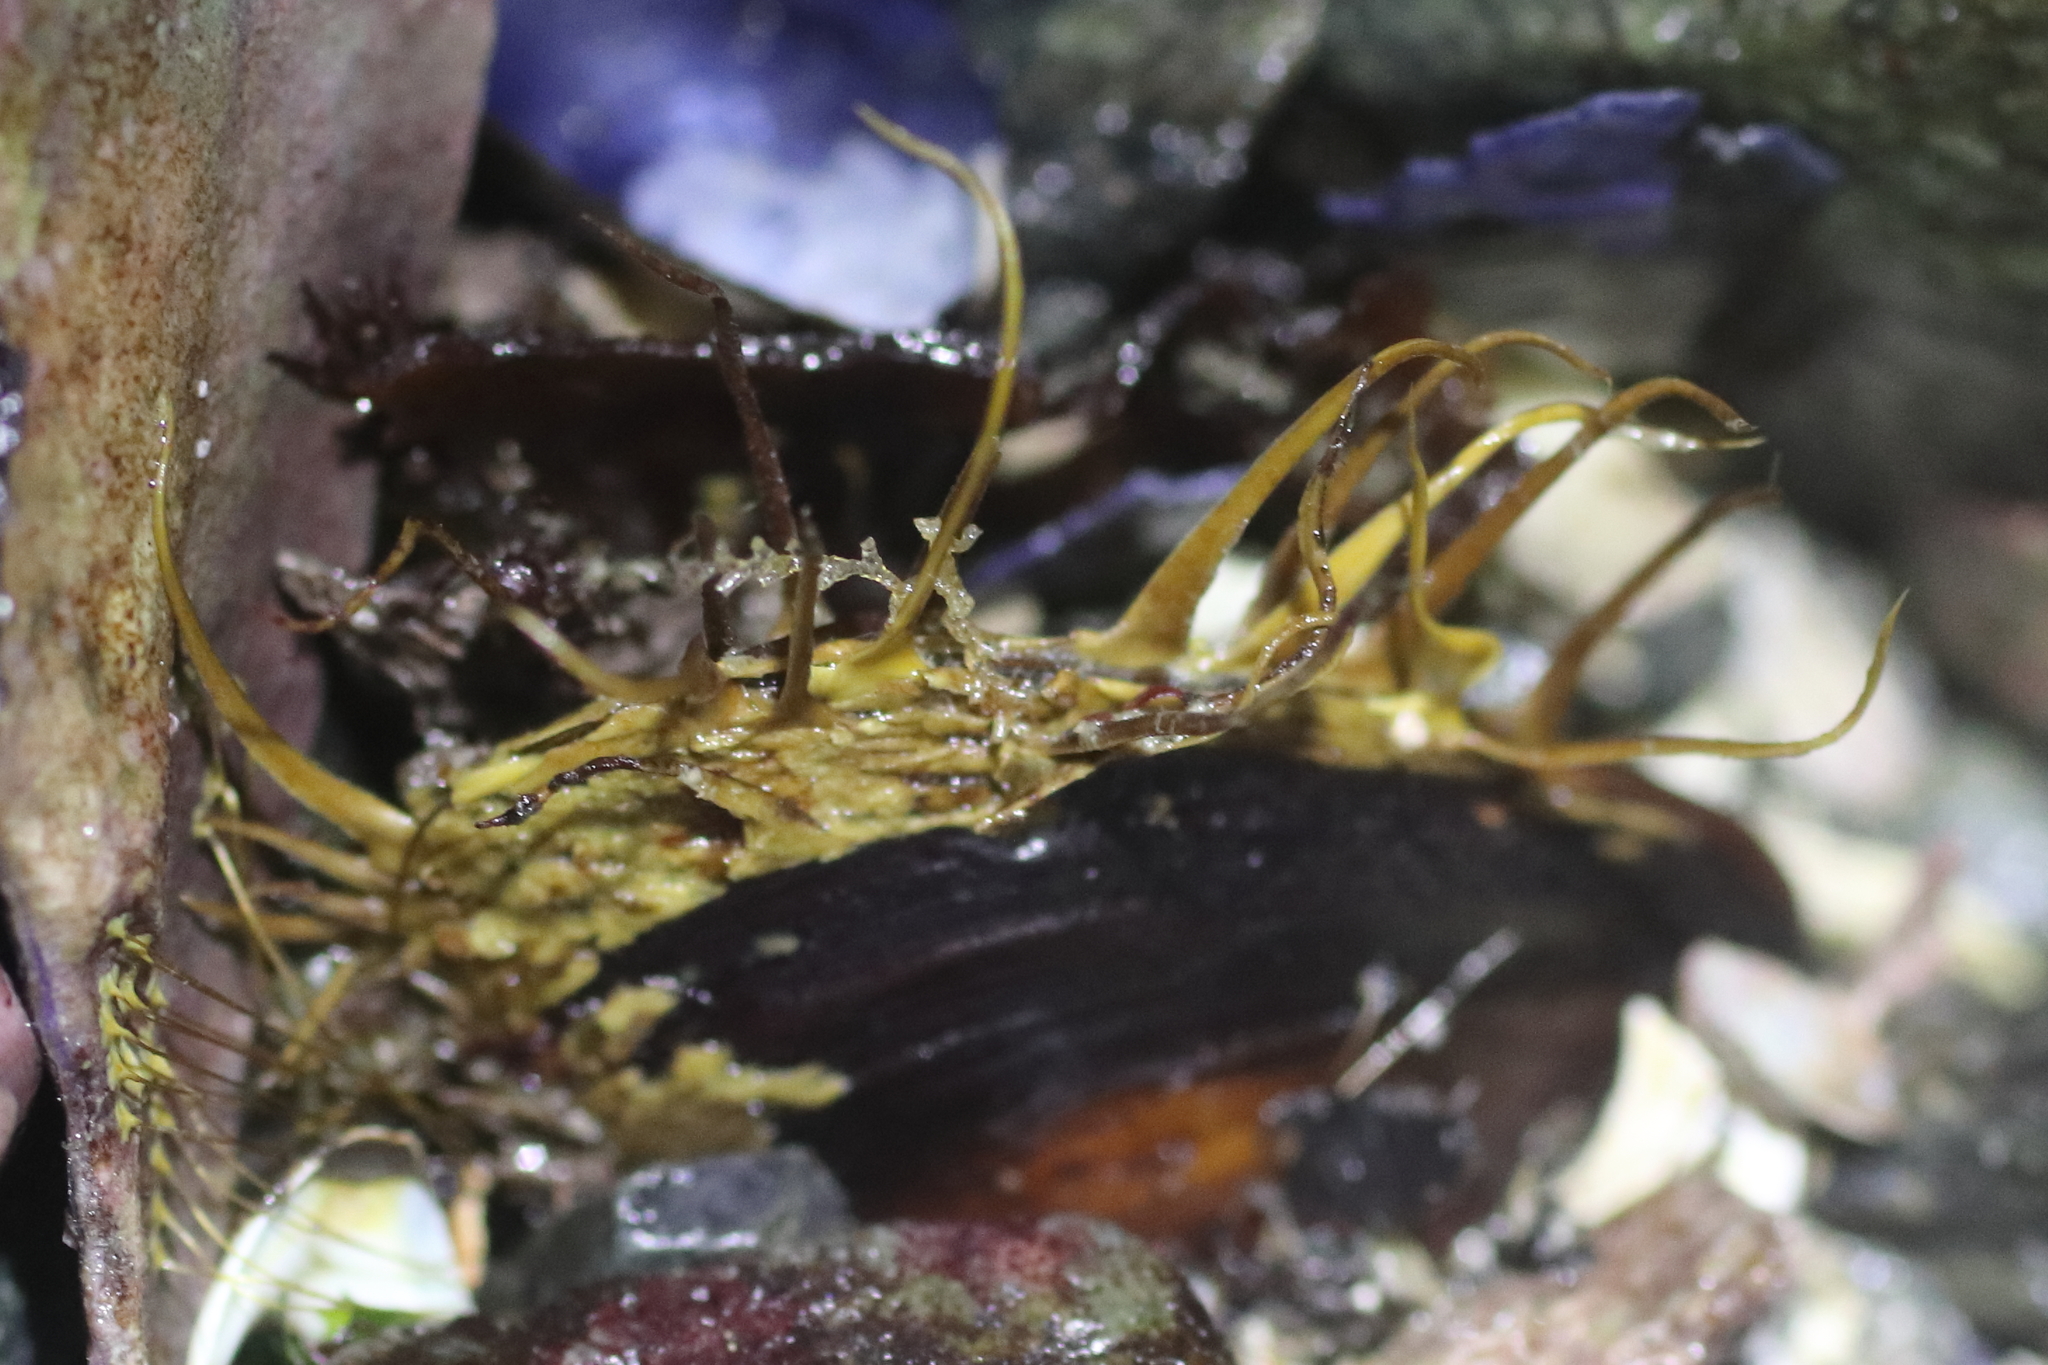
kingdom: Animalia
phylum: Mollusca
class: Bivalvia
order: Mytilida
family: Mytilidae
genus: Modiolus
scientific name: Modiolus modiolus
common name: Horse-mussel
